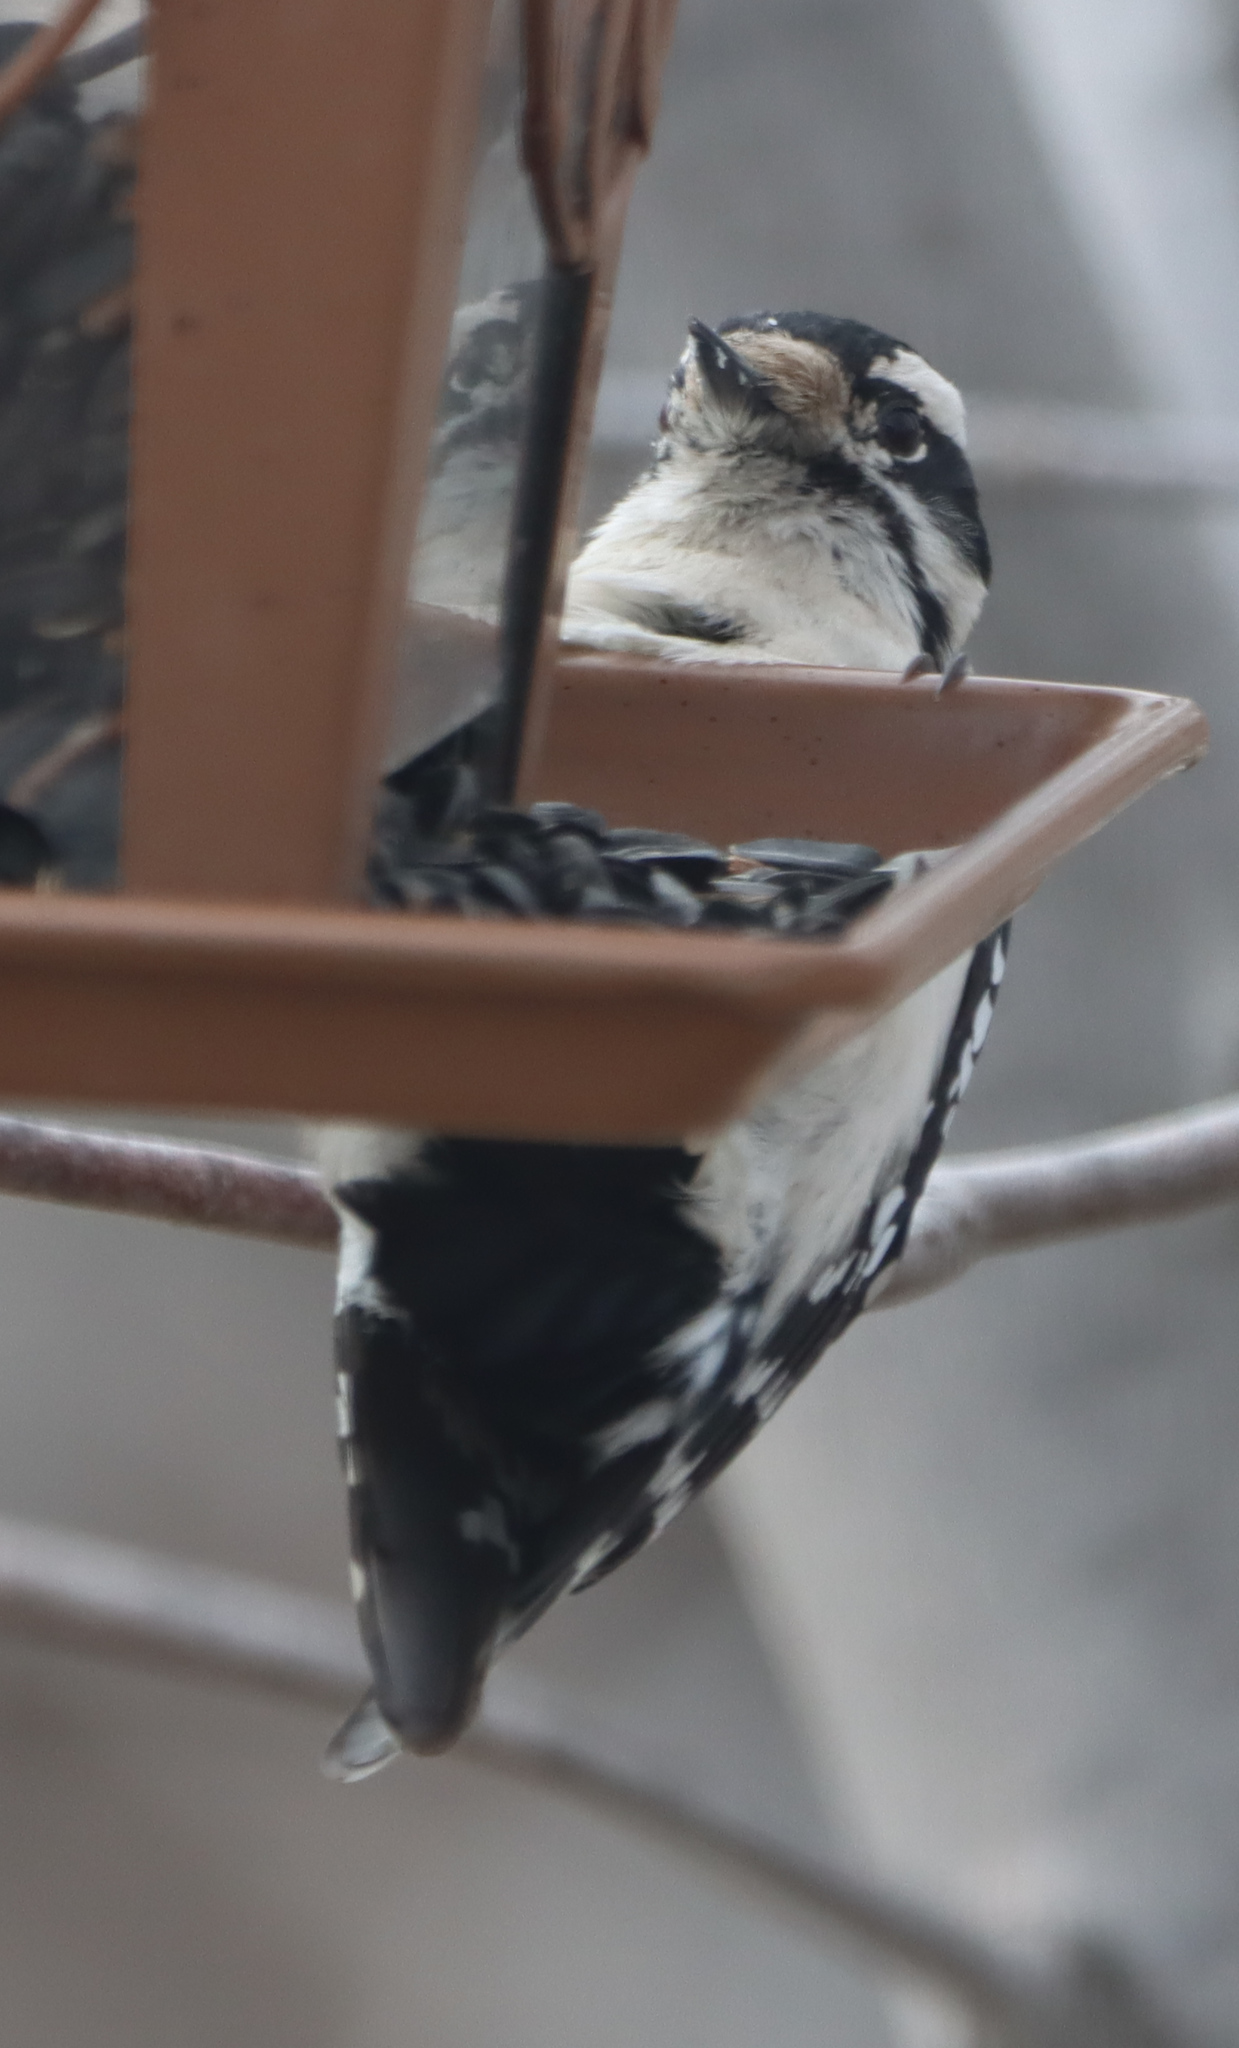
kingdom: Animalia
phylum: Chordata
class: Aves
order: Piciformes
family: Picidae
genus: Dryobates
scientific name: Dryobates pubescens
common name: Downy woodpecker
